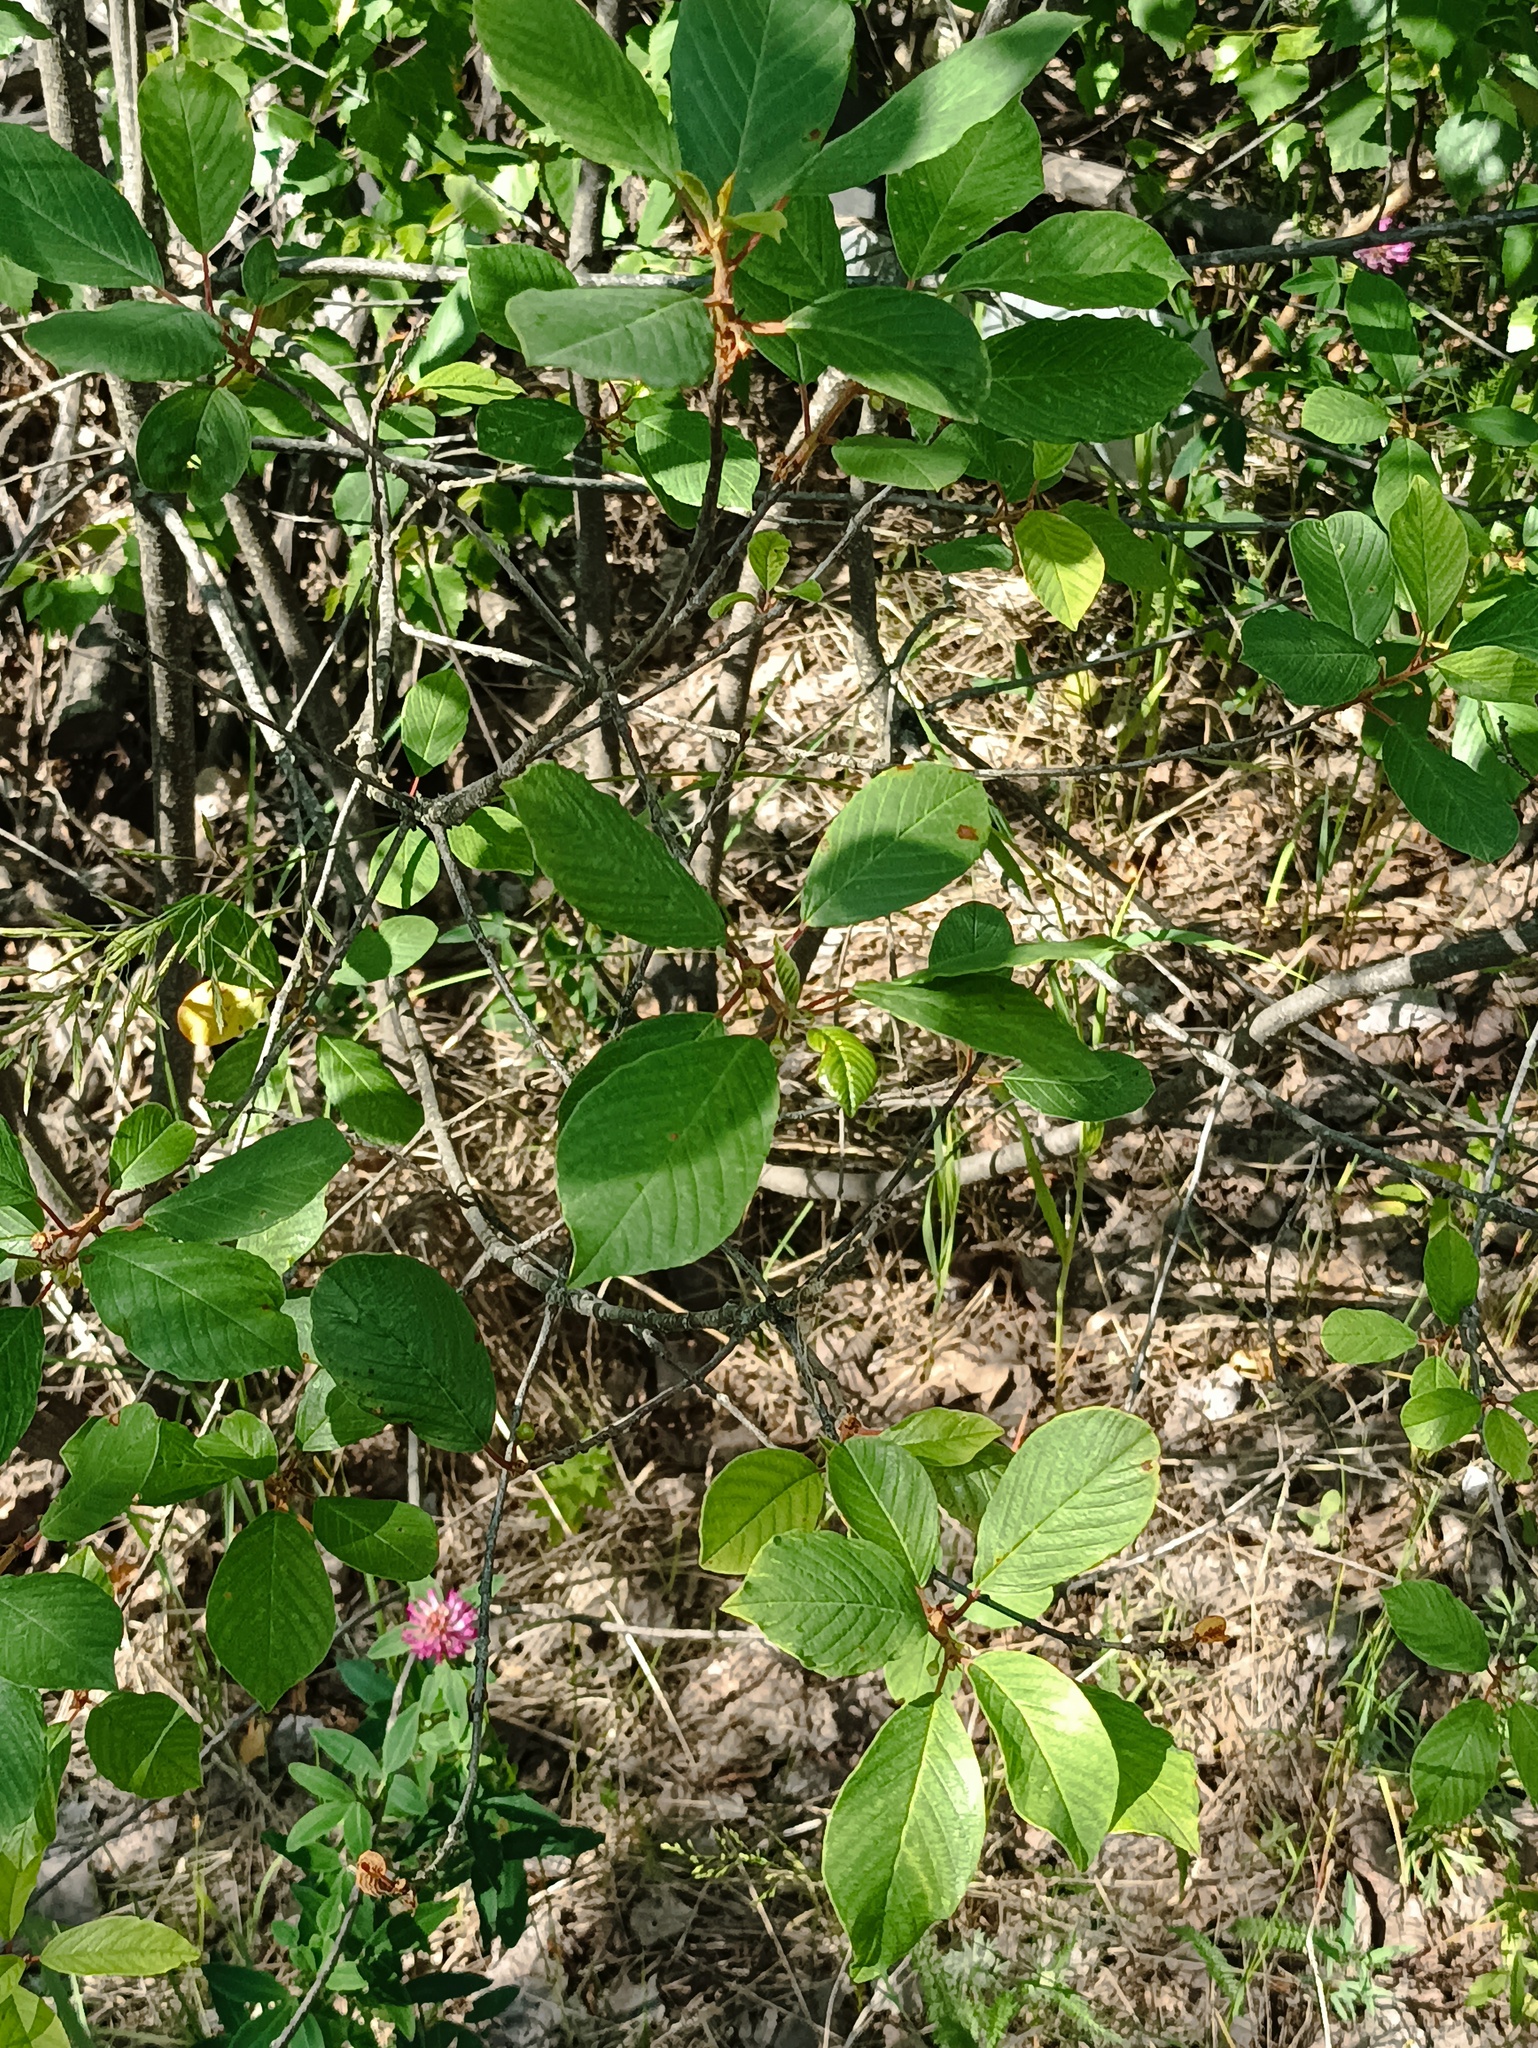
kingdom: Plantae
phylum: Tracheophyta
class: Magnoliopsida
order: Rosales
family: Rhamnaceae
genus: Frangula
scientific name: Frangula alnus
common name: Alder buckthorn
